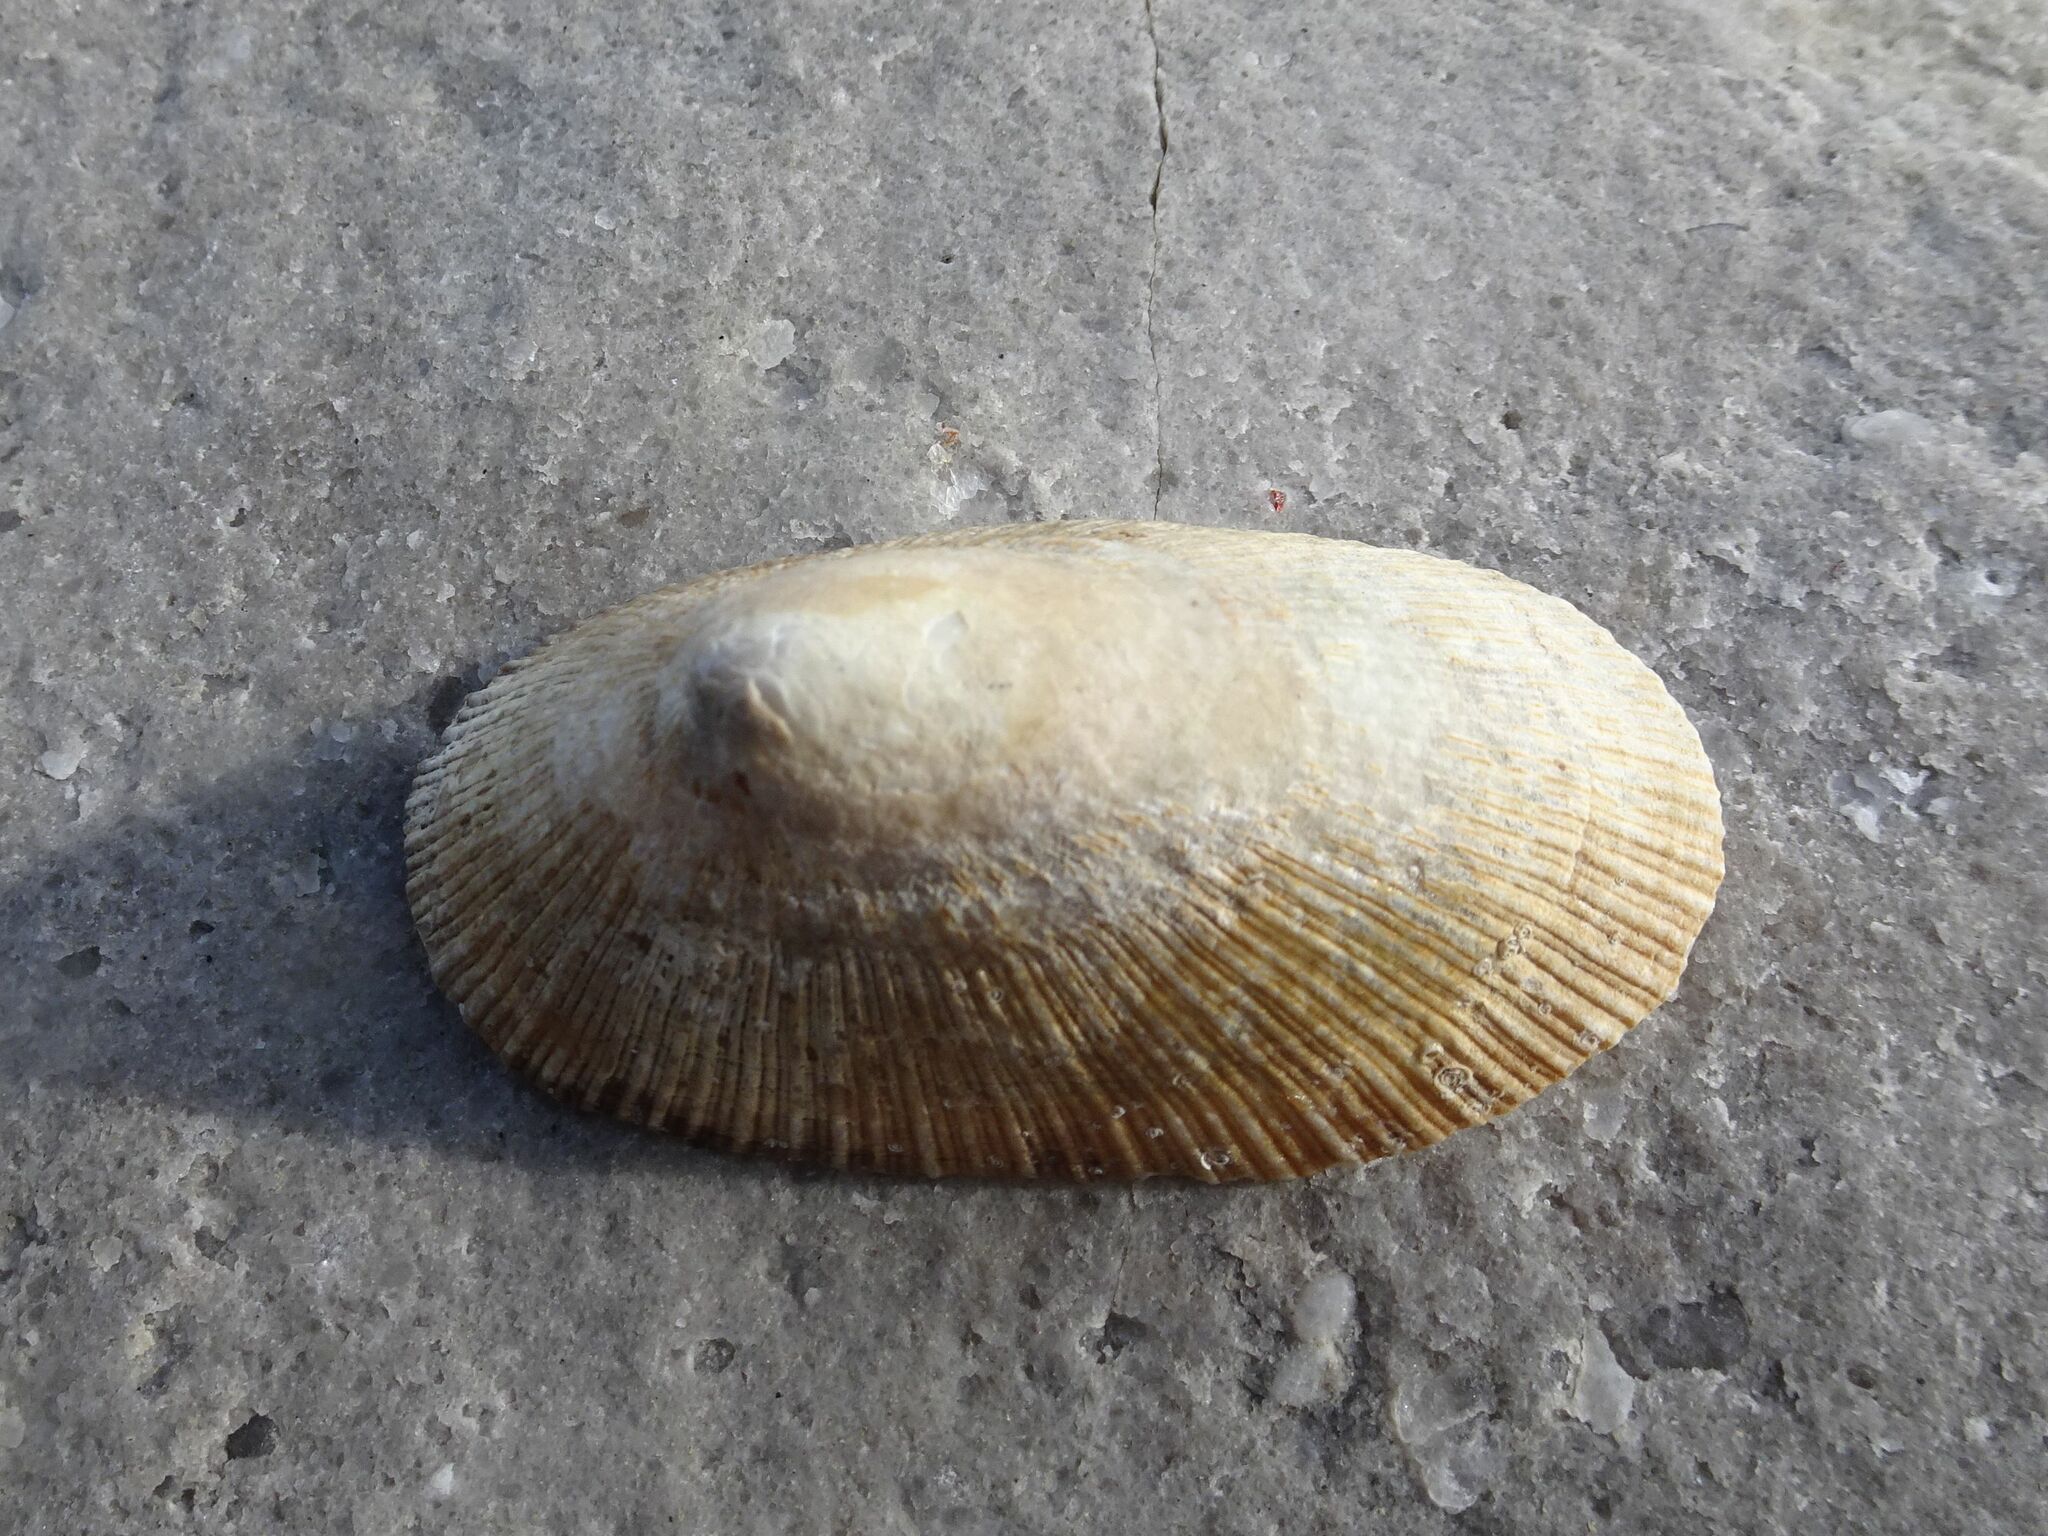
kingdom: Animalia
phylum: Mollusca
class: Gastropoda
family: Patellidae
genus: Cymbula
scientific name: Cymbula compressa
